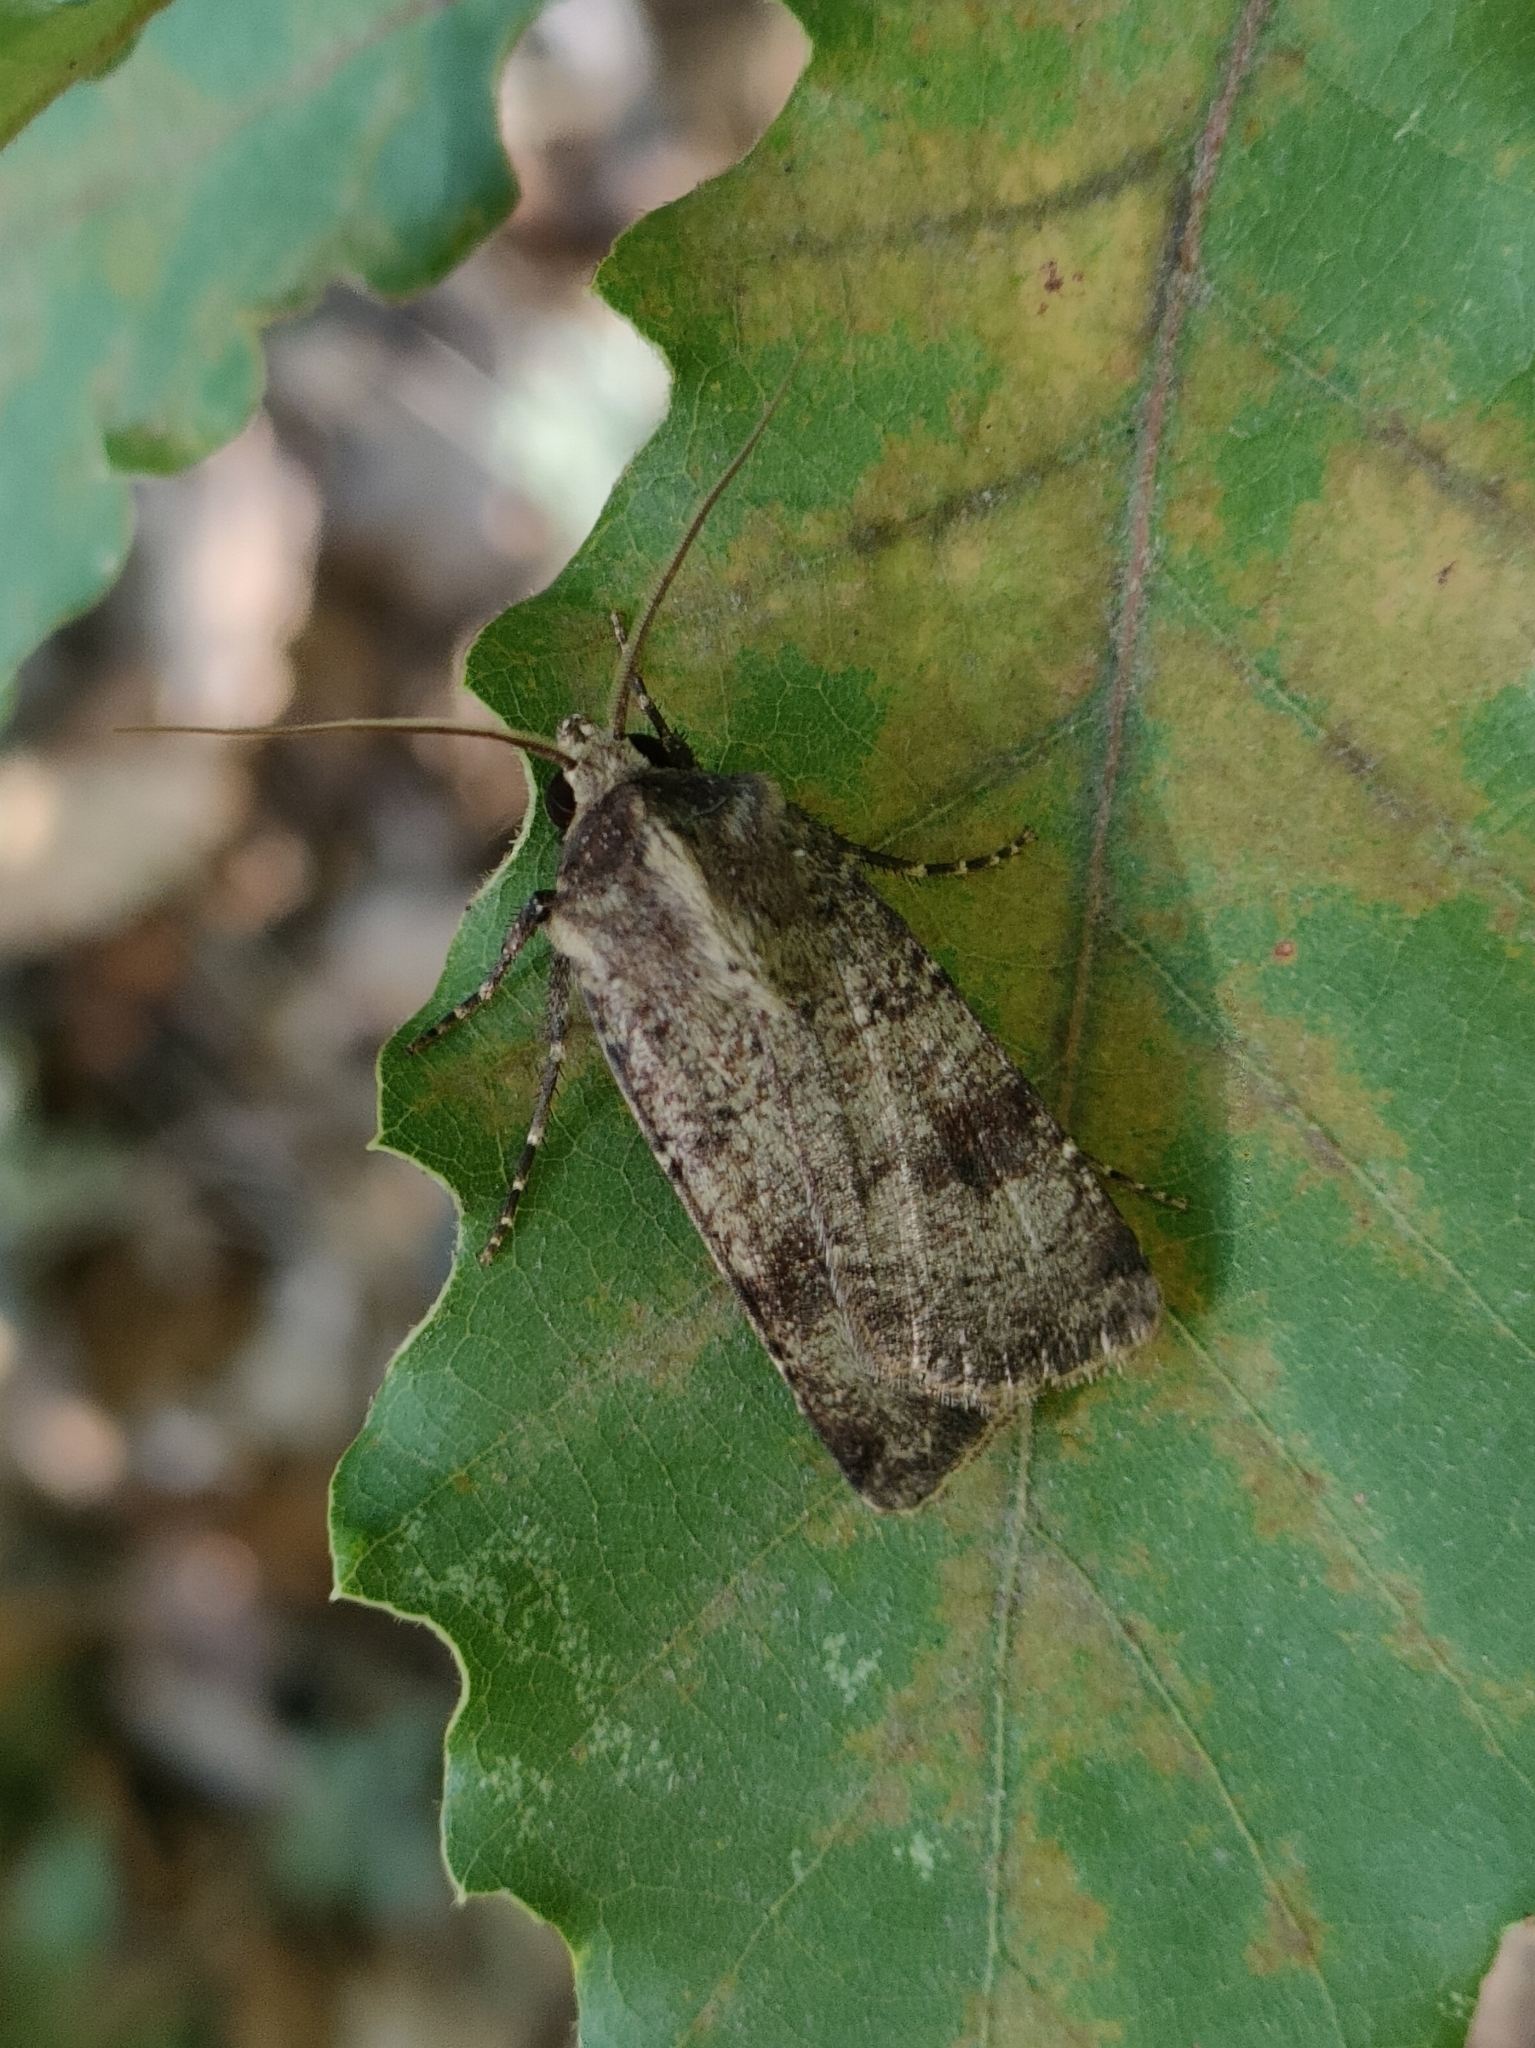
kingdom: Animalia
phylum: Arthropoda
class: Insecta
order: Lepidoptera
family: Noctuidae
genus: Agrotis
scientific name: Agrotis trux
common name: Crescent dart
